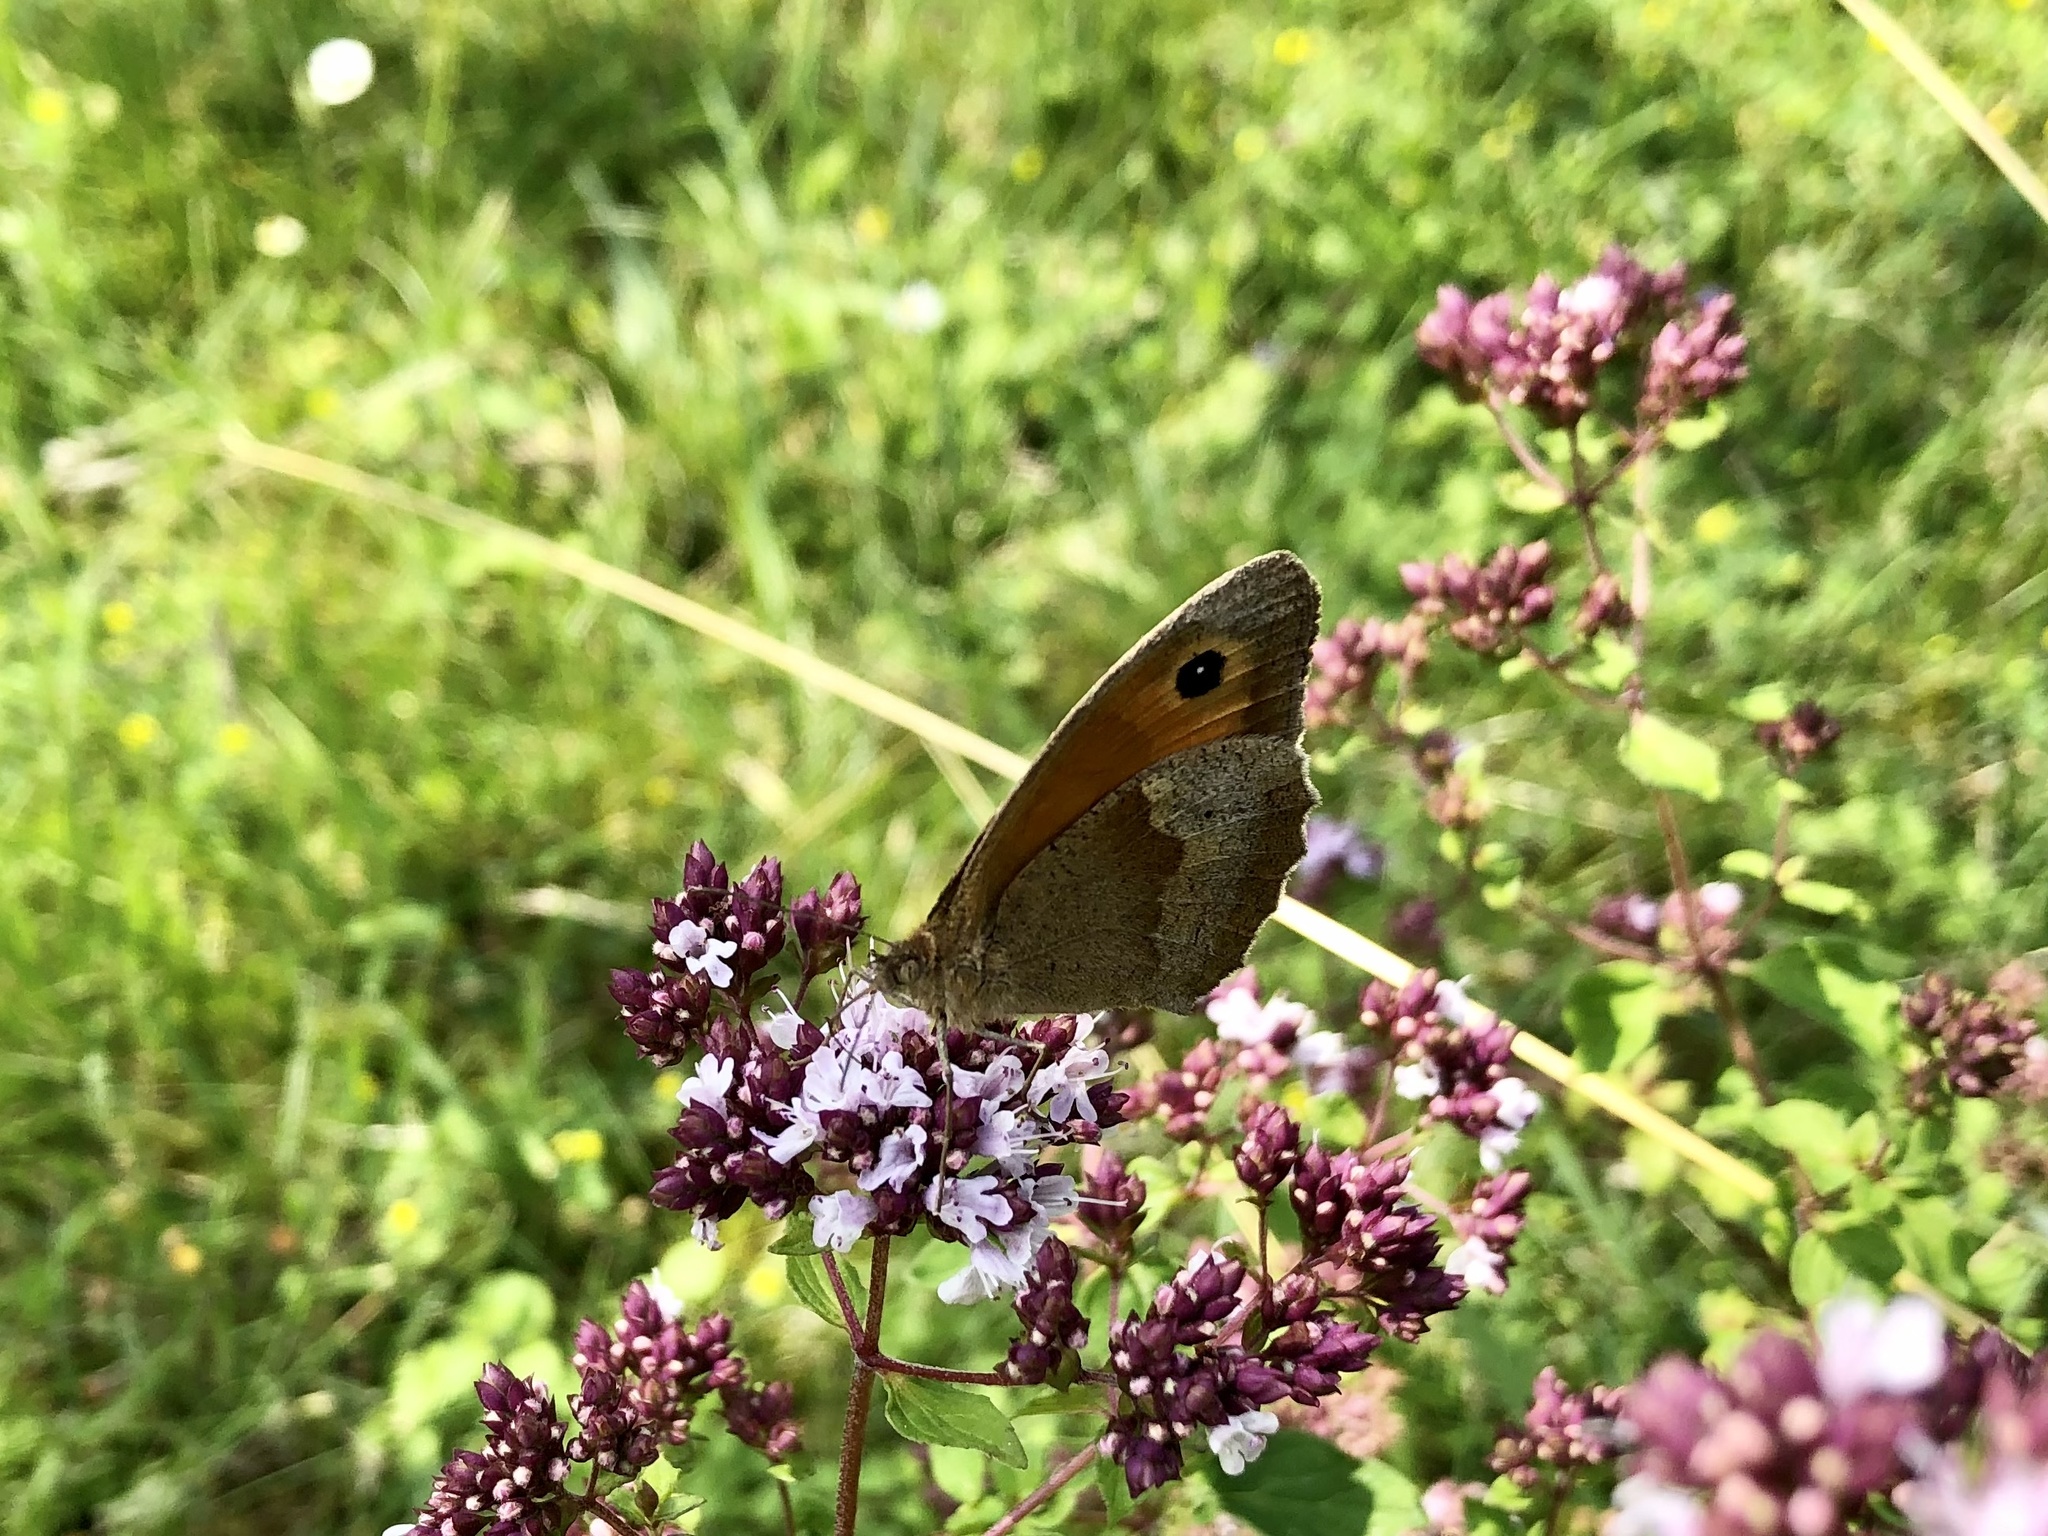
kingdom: Animalia
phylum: Arthropoda
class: Insecta
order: Lepidoptera
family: Nymphalidae
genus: Maniola
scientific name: Maniola jurtina
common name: Meadow brown
